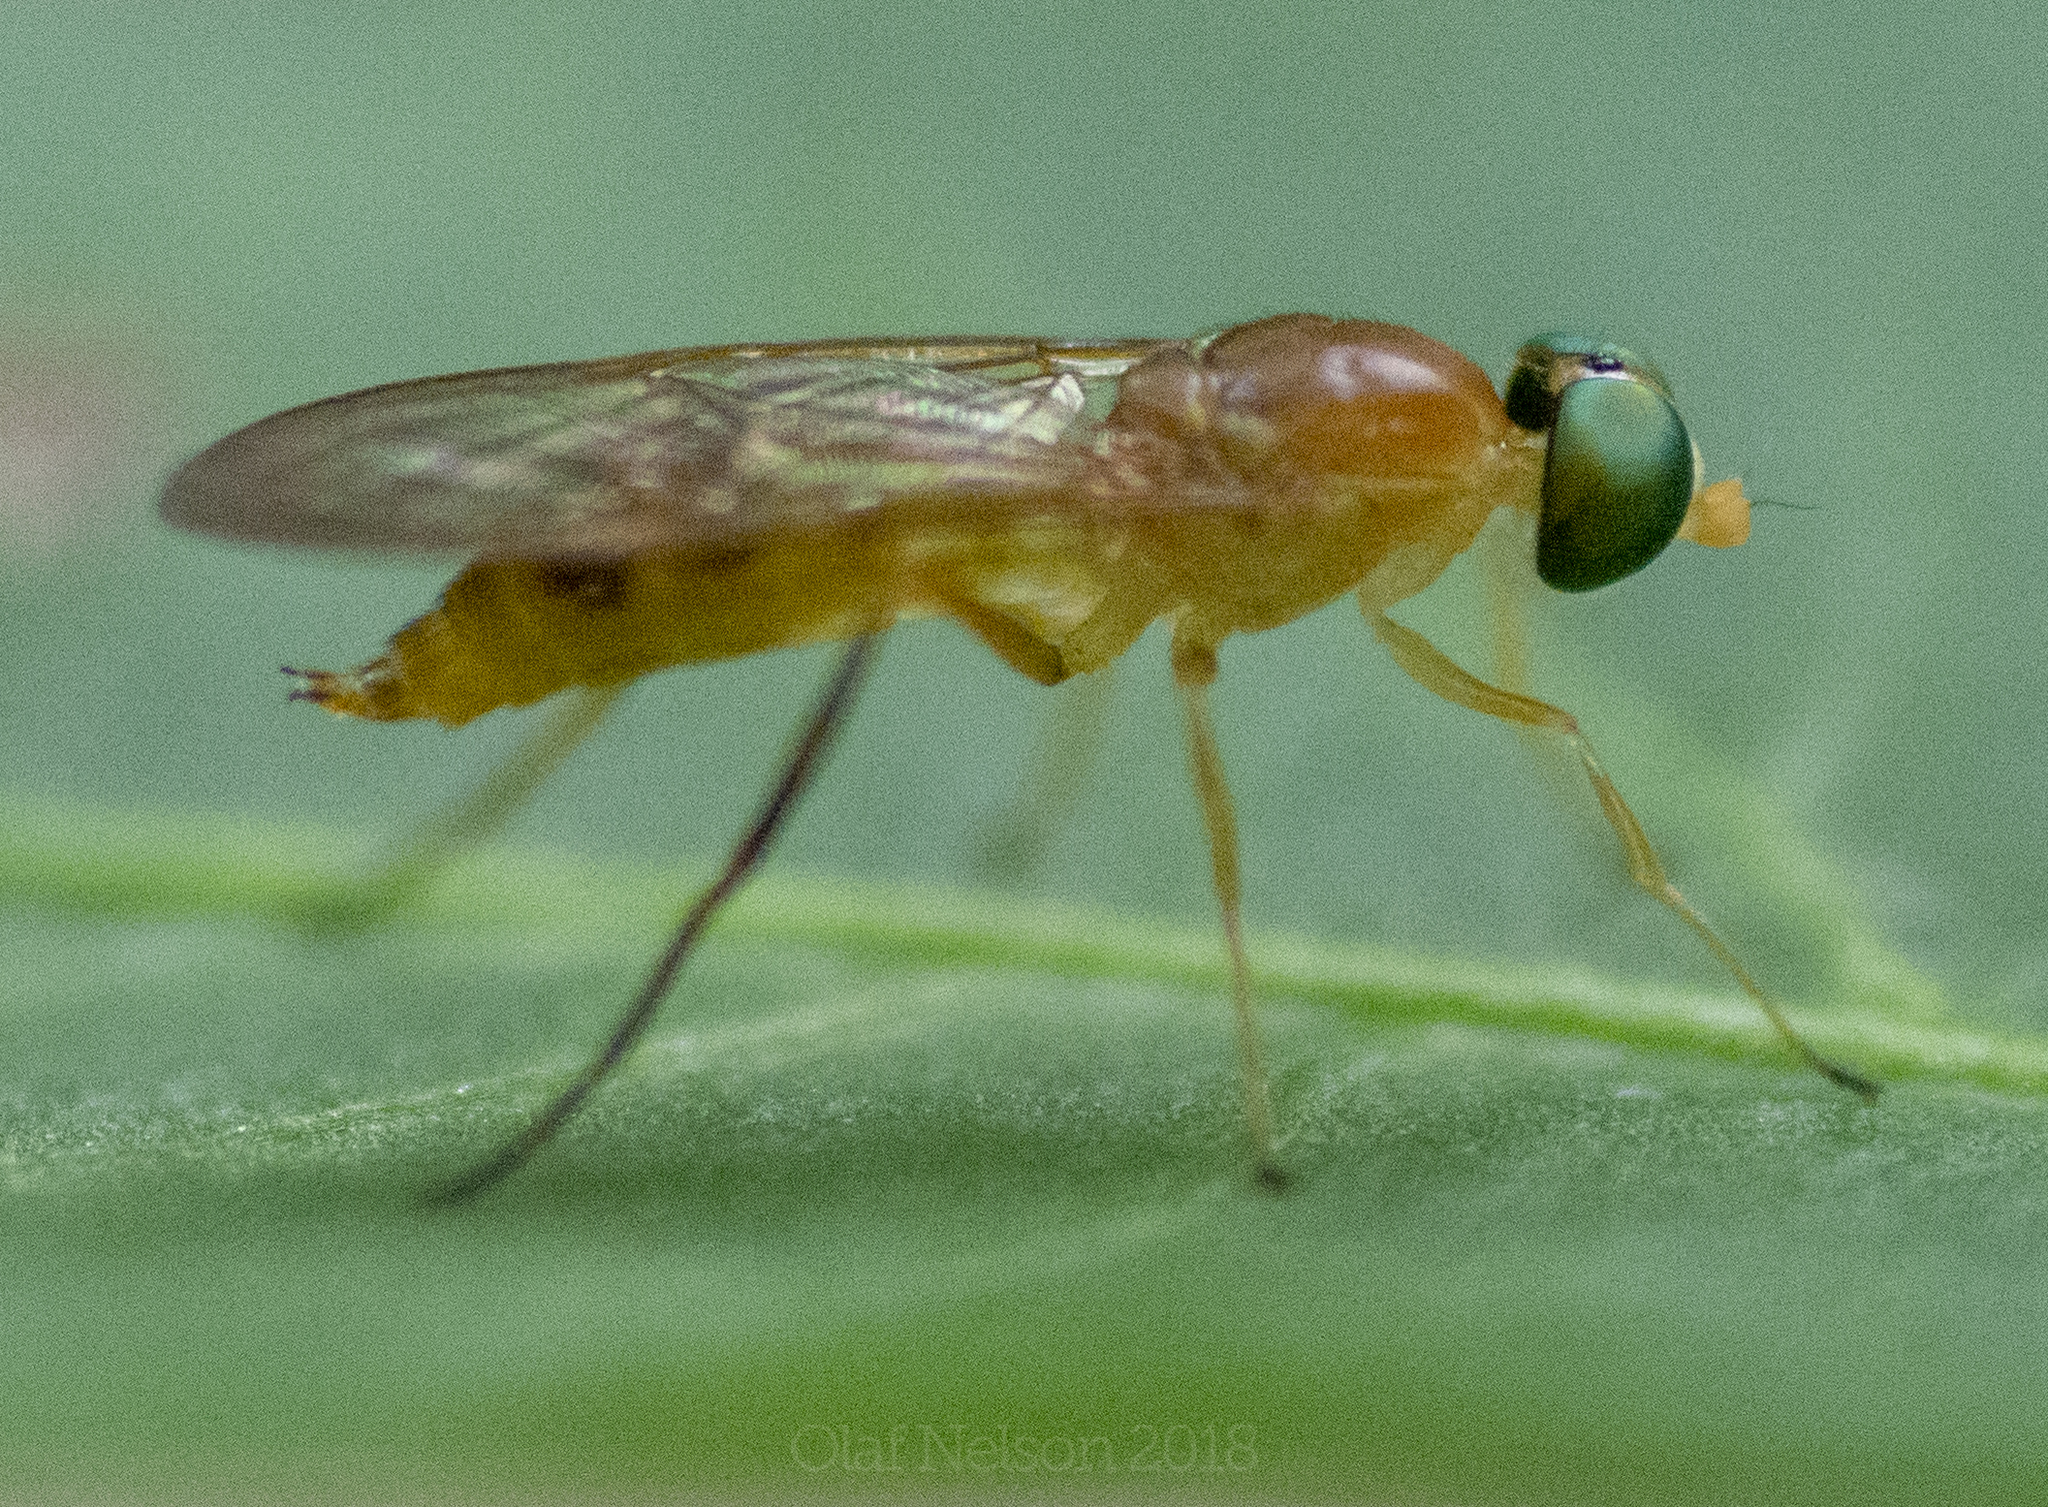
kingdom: Animalia
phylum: Arthropoda
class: Insecta
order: Diptera
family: Stratiomyidae
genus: Ptecticus
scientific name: Ptecticus trivittatus
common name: Compost fly
